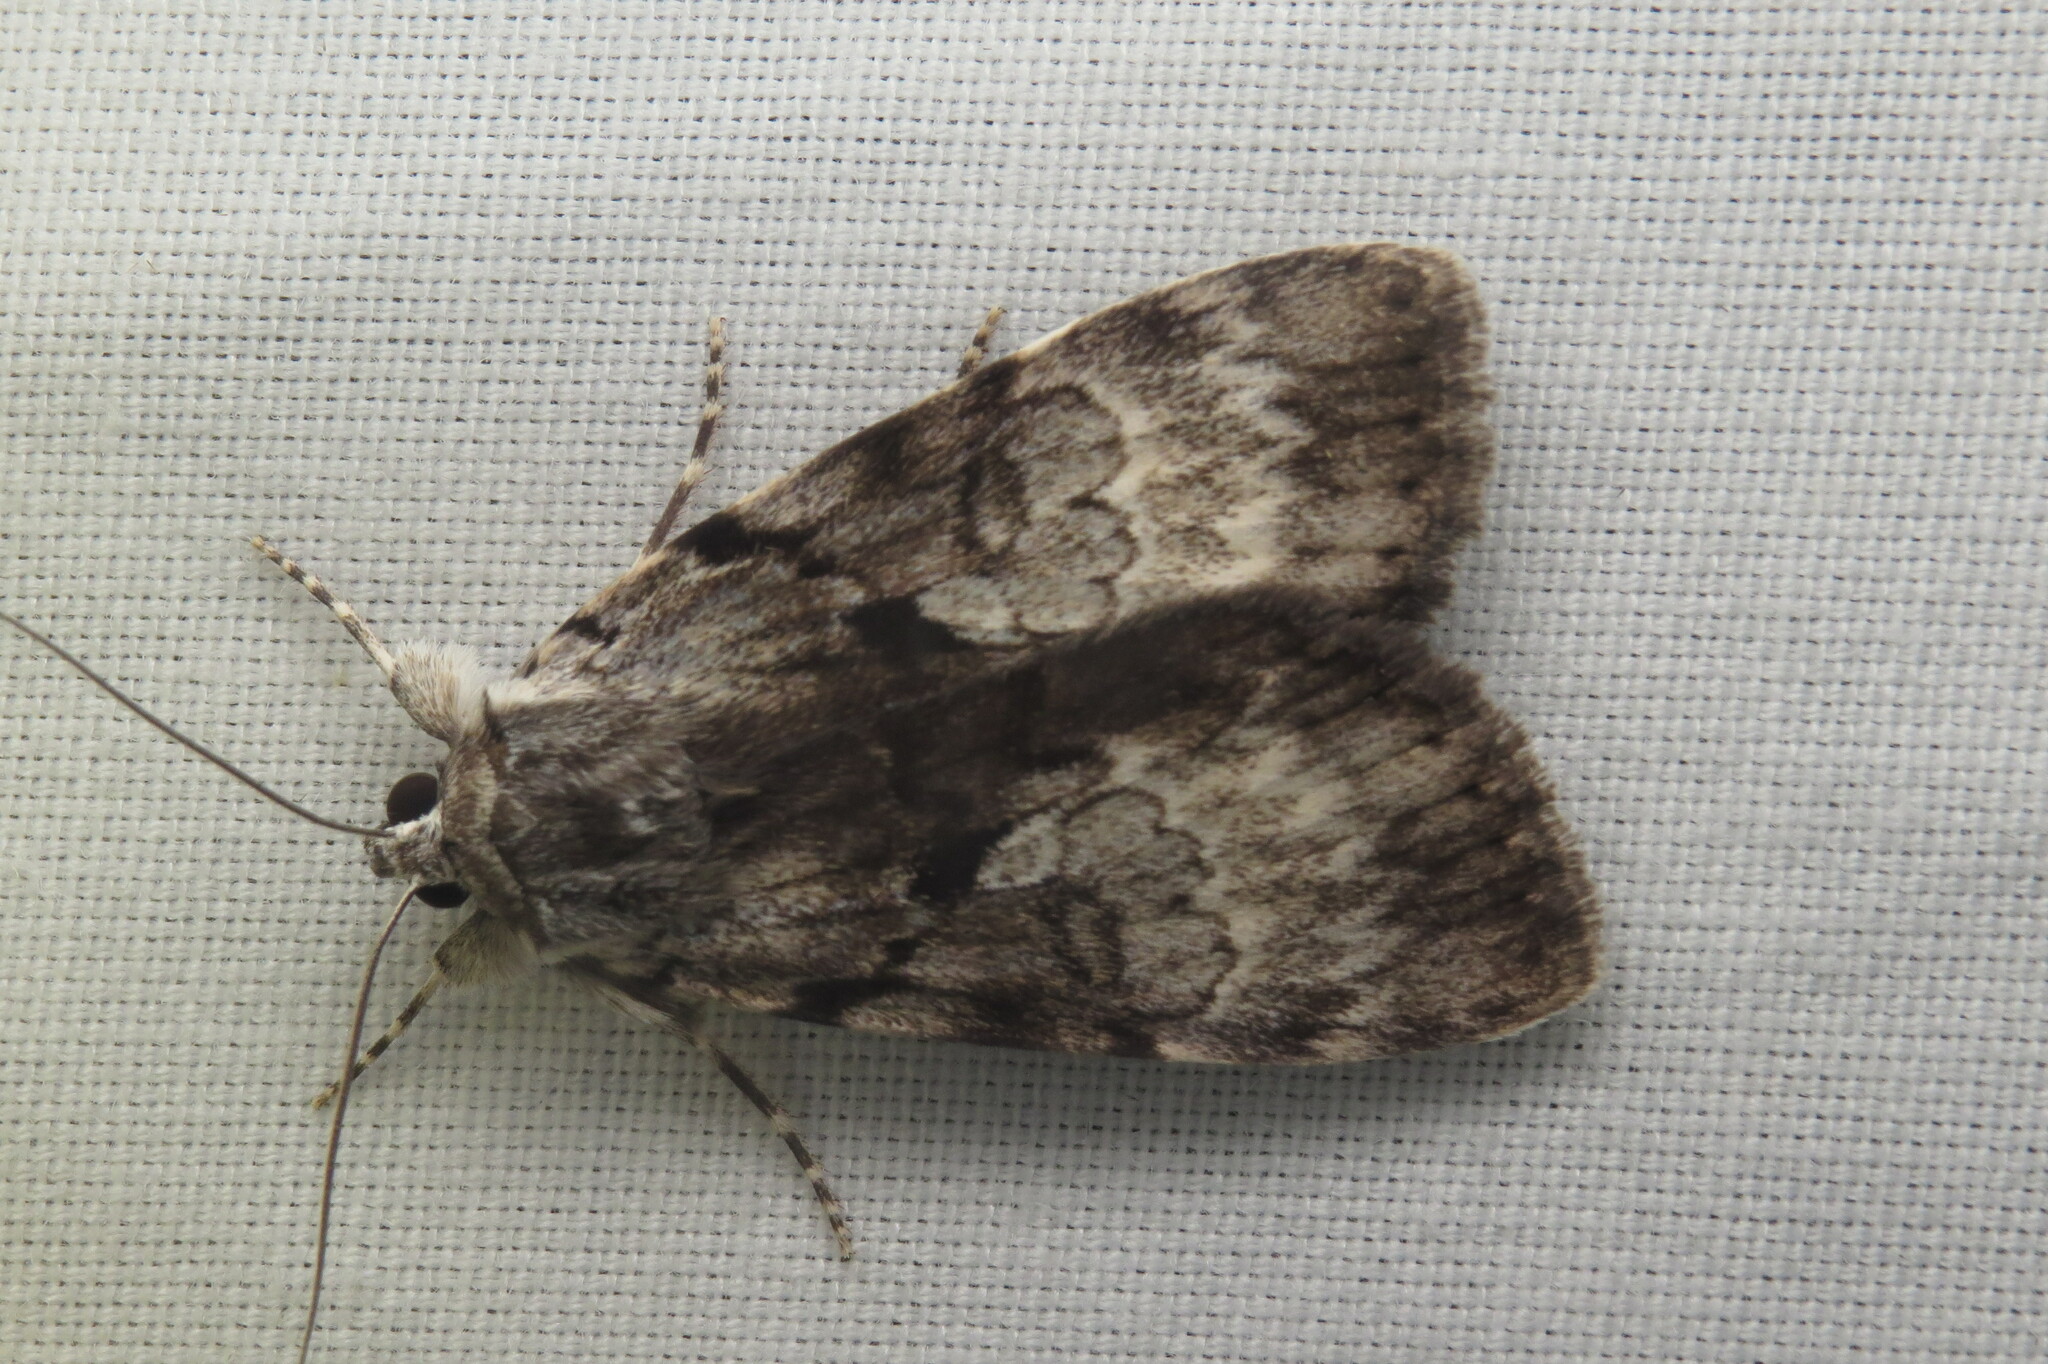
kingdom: Animalia
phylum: Arthropoda
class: Insecta
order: Lepidoptera
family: Erebidae
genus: Catocala
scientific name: Catocala andromedae
